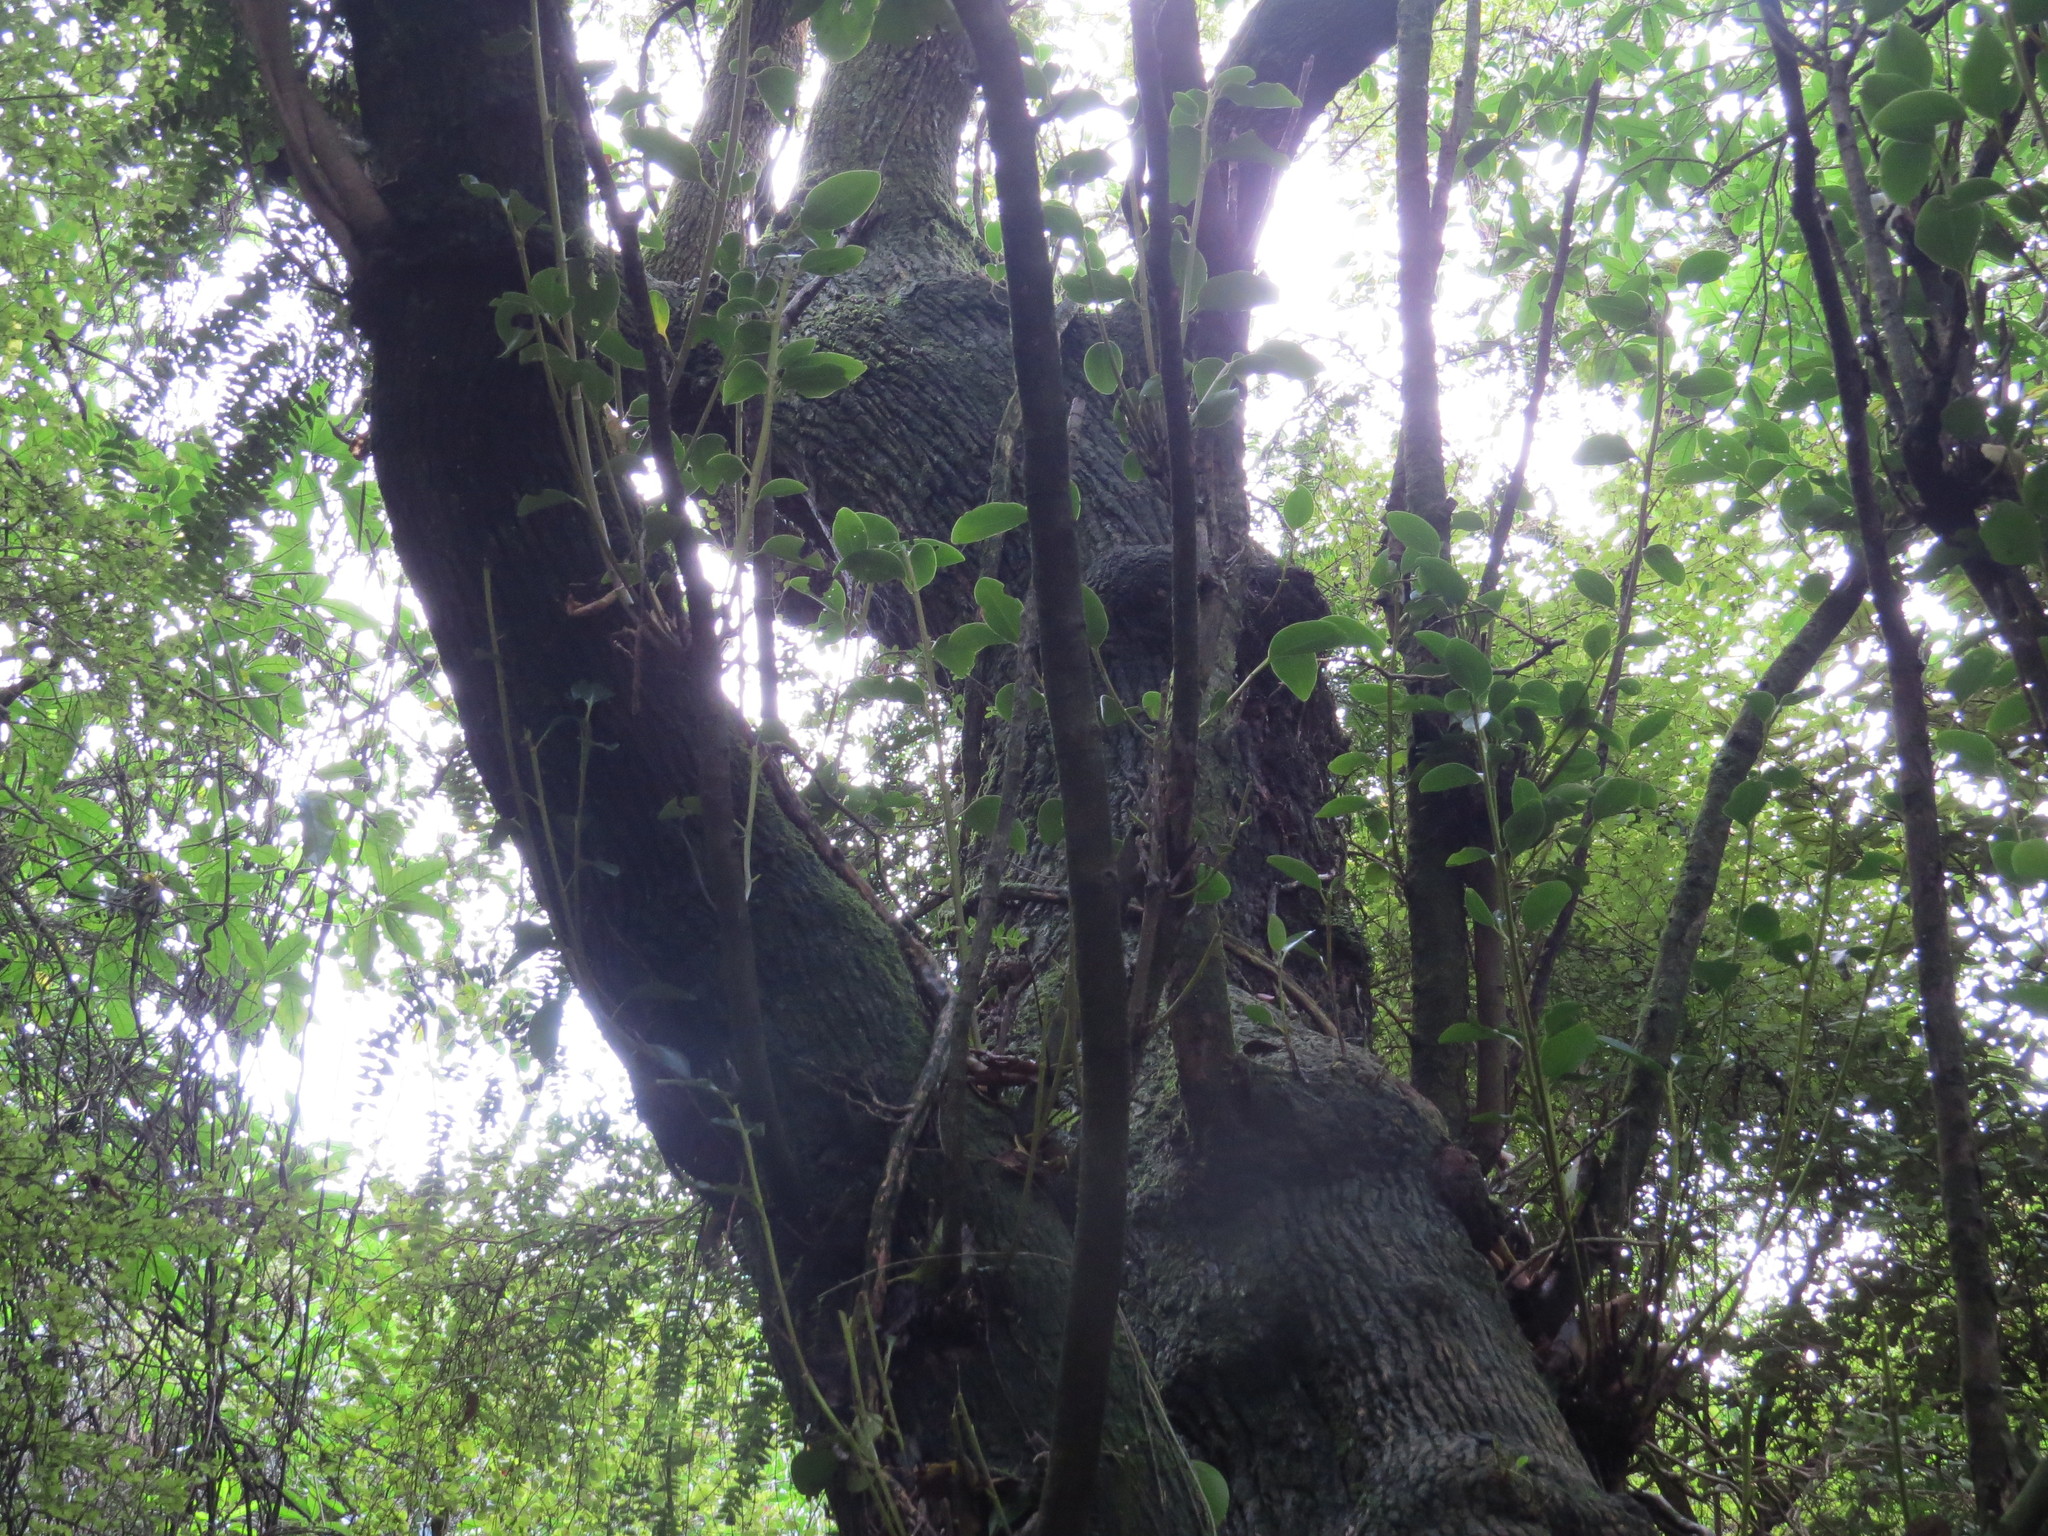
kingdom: Plantae
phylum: Tracheophyta
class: Magnoliopsida
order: Apiales
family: Griseliniaceae
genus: Griselinia
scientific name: Griselinia littoralis
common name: New zealand broadleaf
